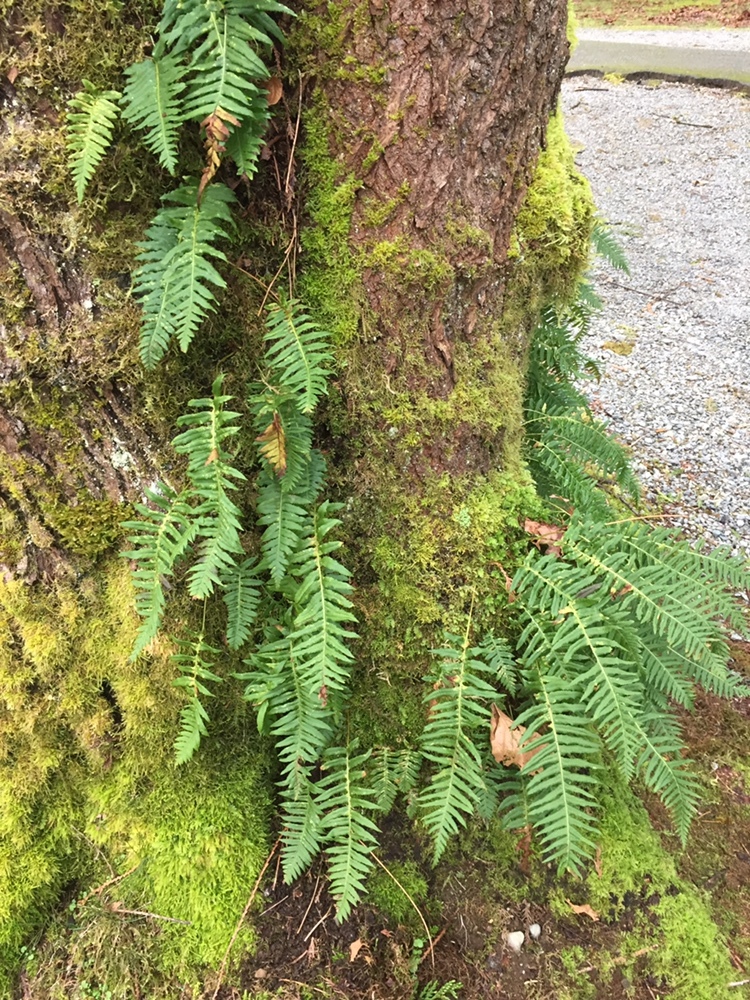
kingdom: Plantae
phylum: Tracheophyta
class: Polypodiopsida
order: Polypodiales
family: Polypodiaceae
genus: Polypodium
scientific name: Polypodium glycyrrhiza
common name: Licorice fern
